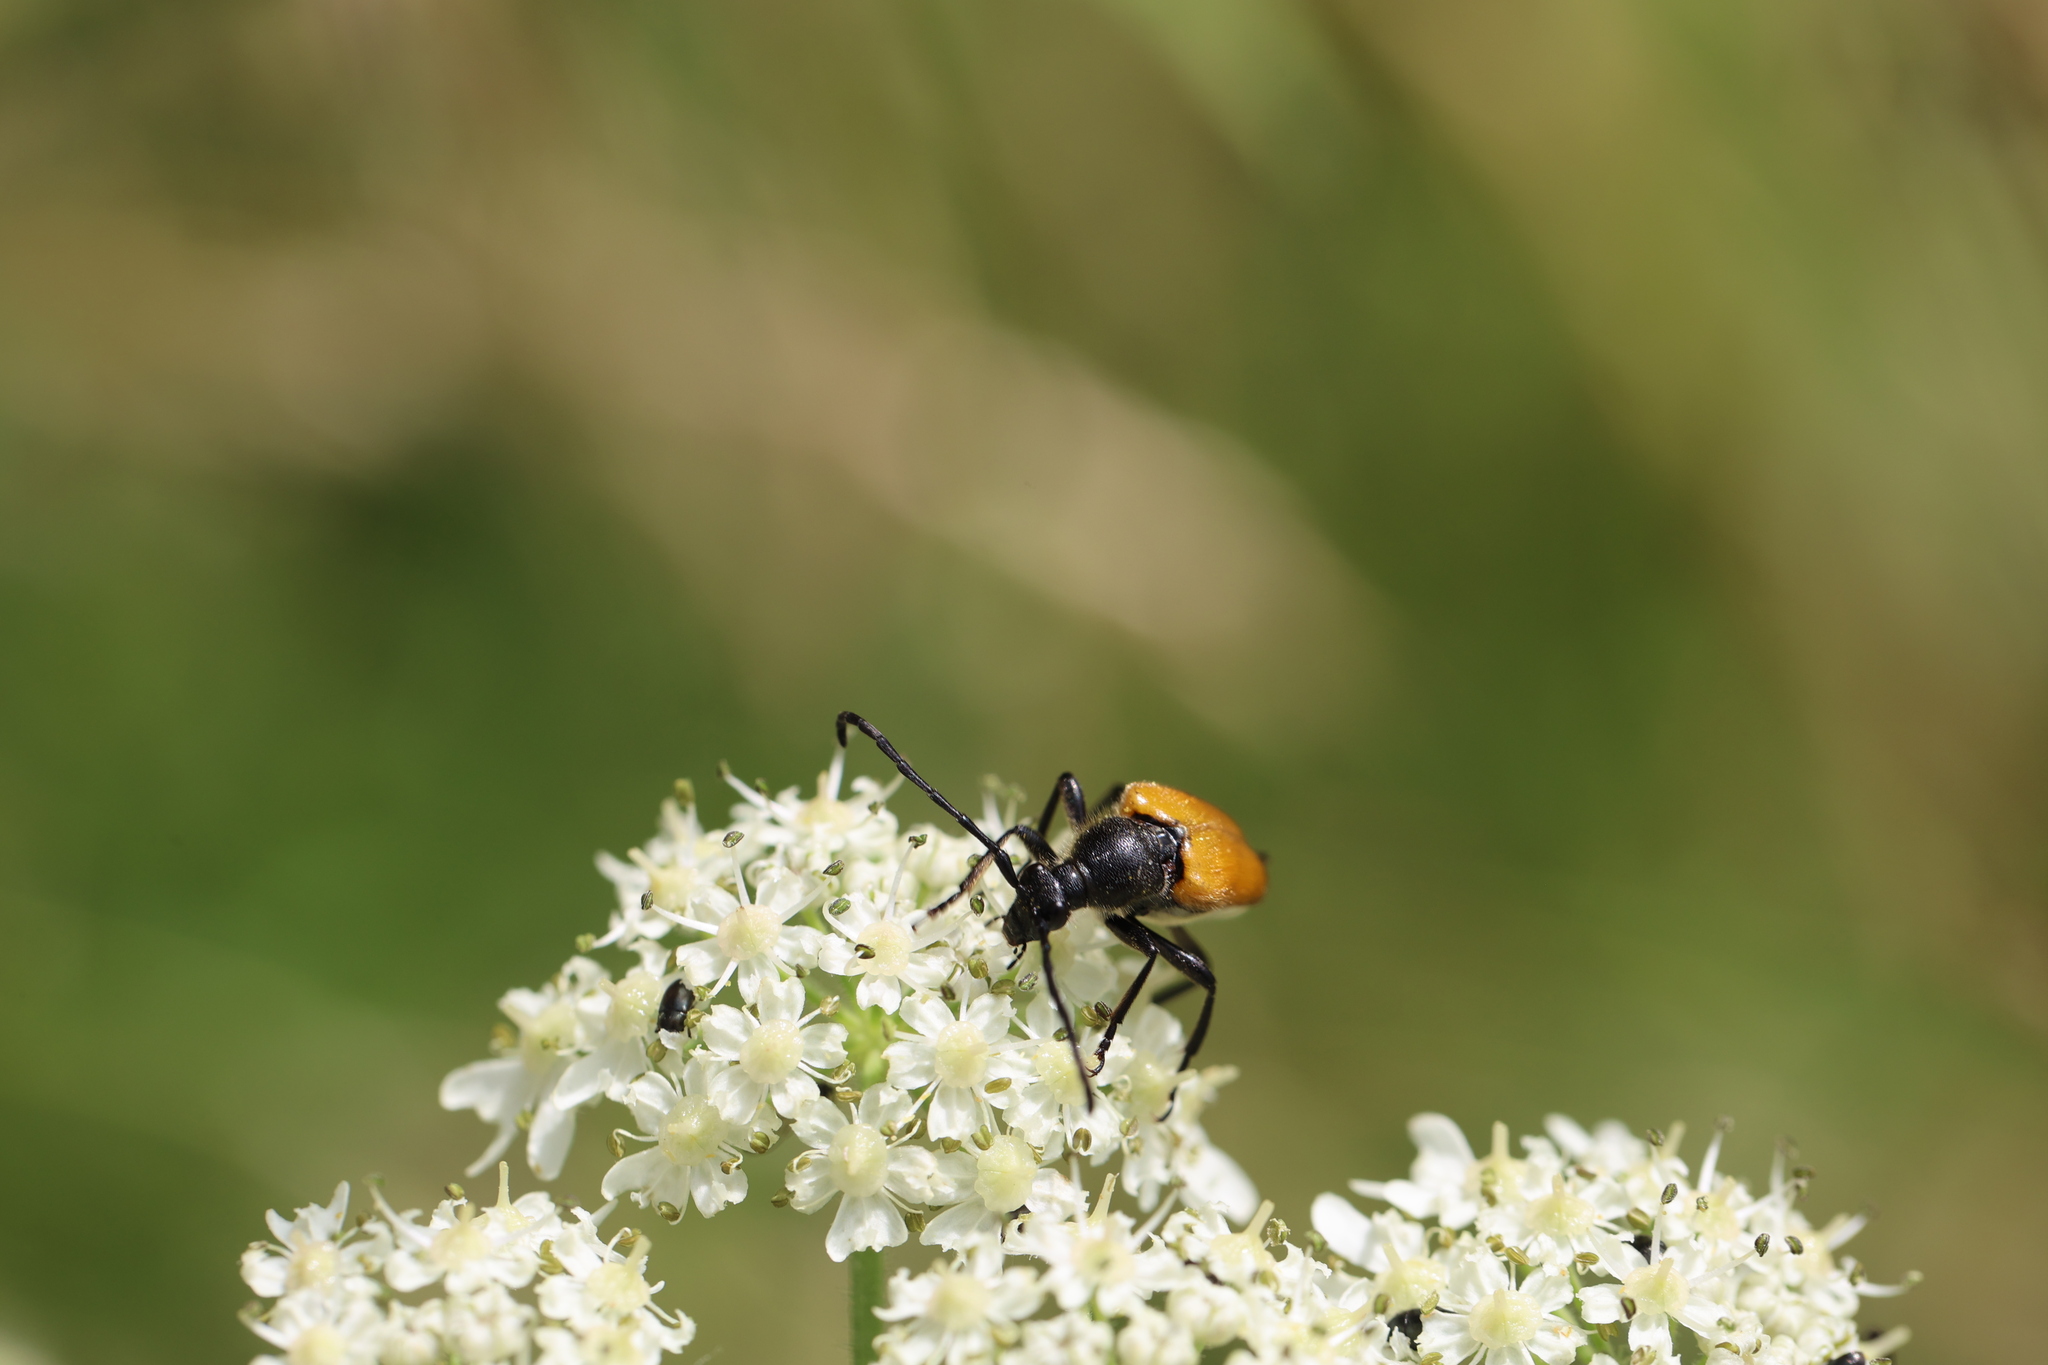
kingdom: Animalia
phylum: Arthropoda
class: Insecta
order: Coleoptera
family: Cerambycidae
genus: Paracorymbia
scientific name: Paracorymbia fulva
